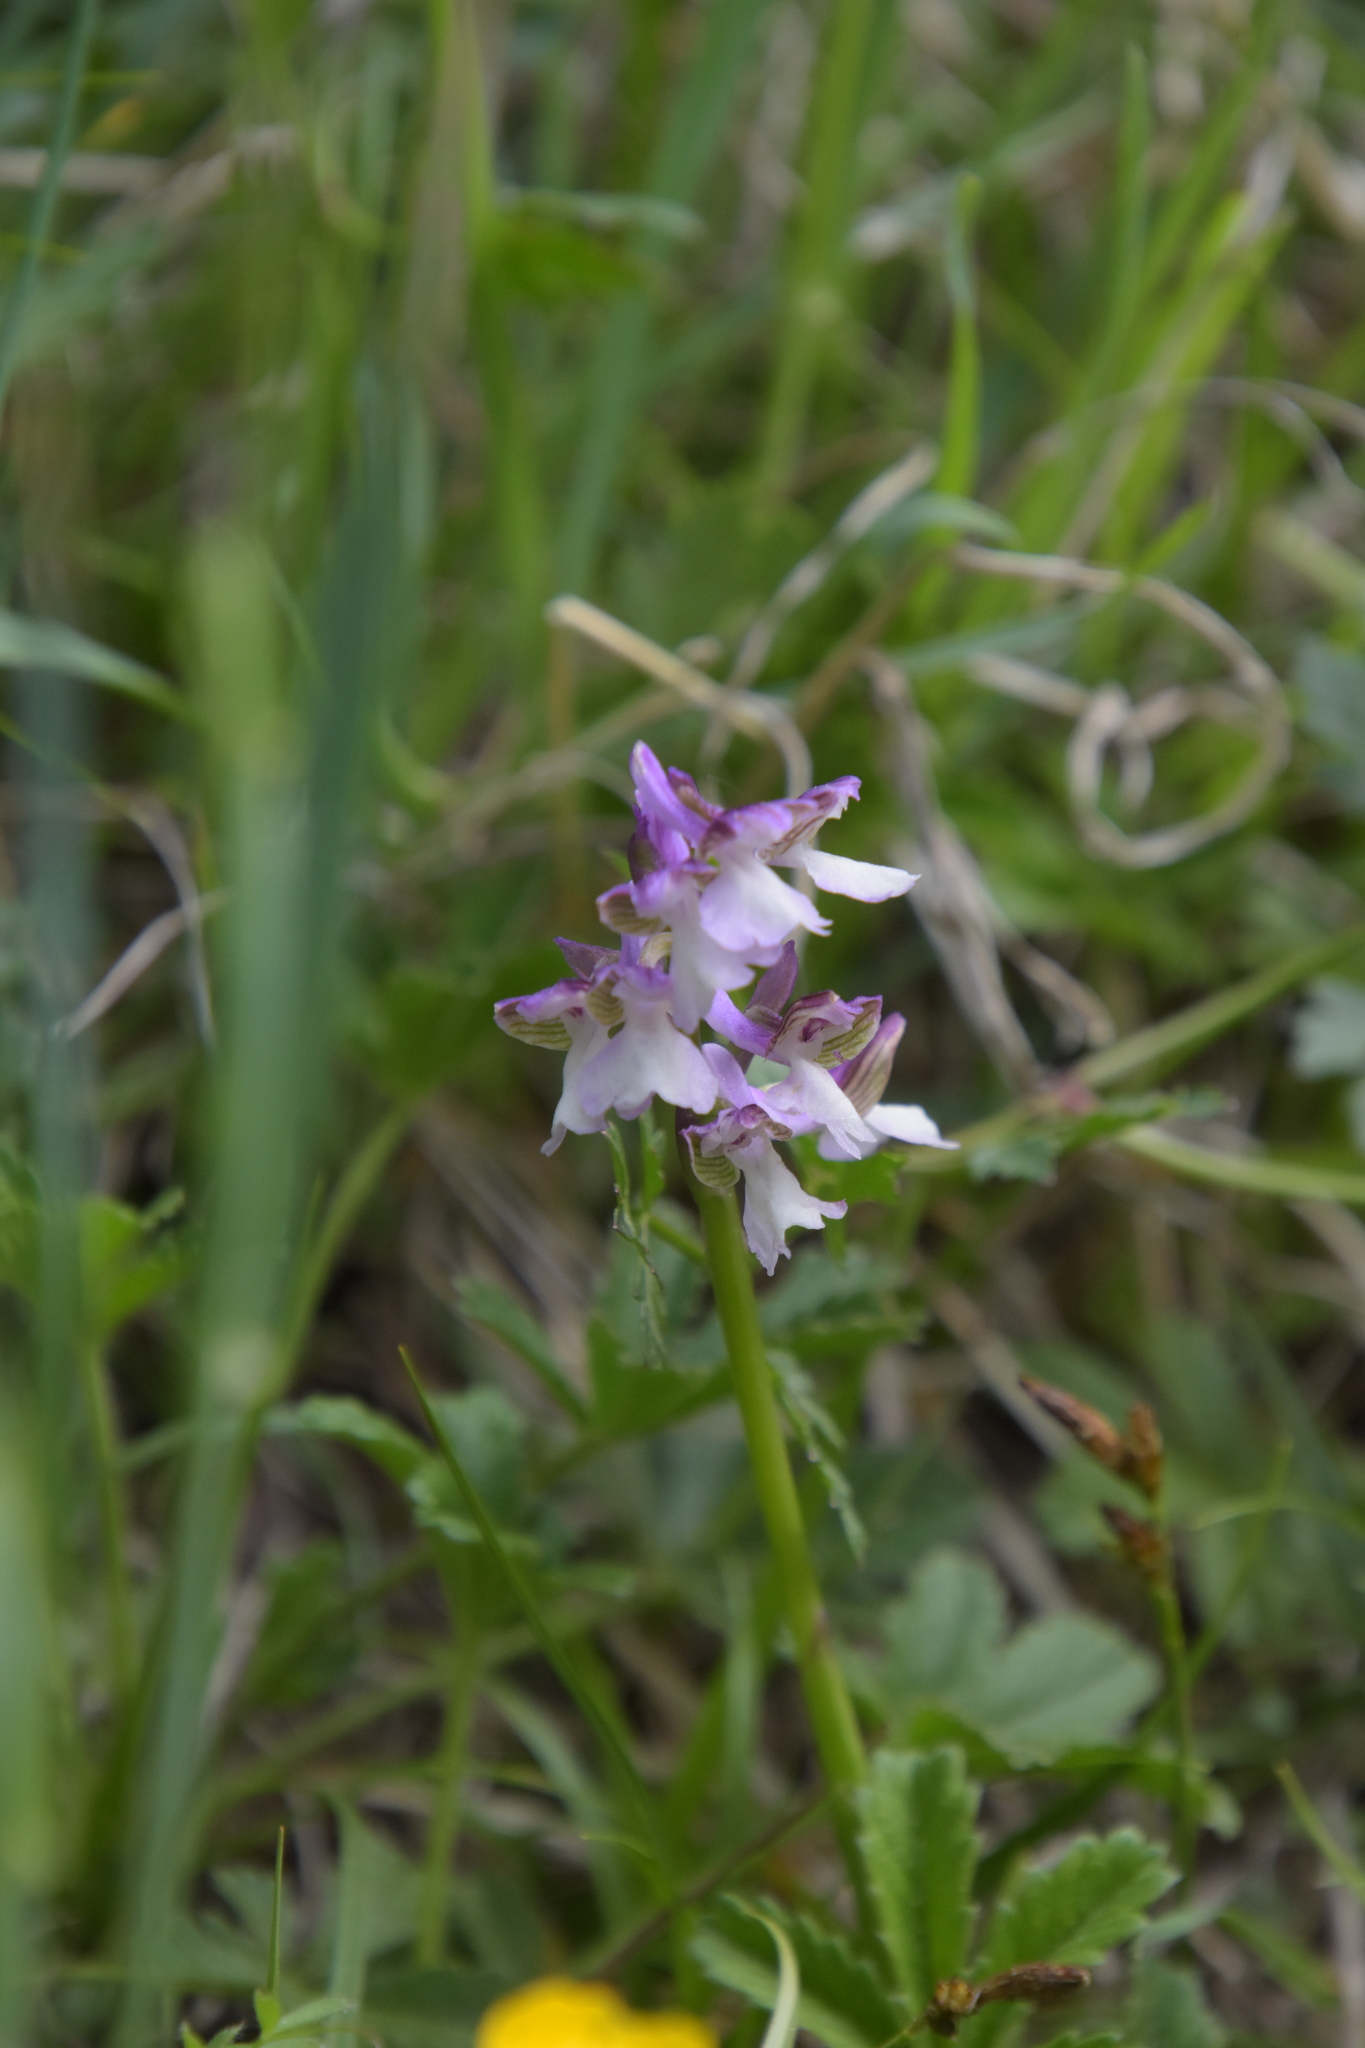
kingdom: Plantae
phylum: Tracheophyta
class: Liliopsida
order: Asparagales
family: Orchidaceae
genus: Anacamptis
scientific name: Anacamptis morio
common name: Green-winged orchid
